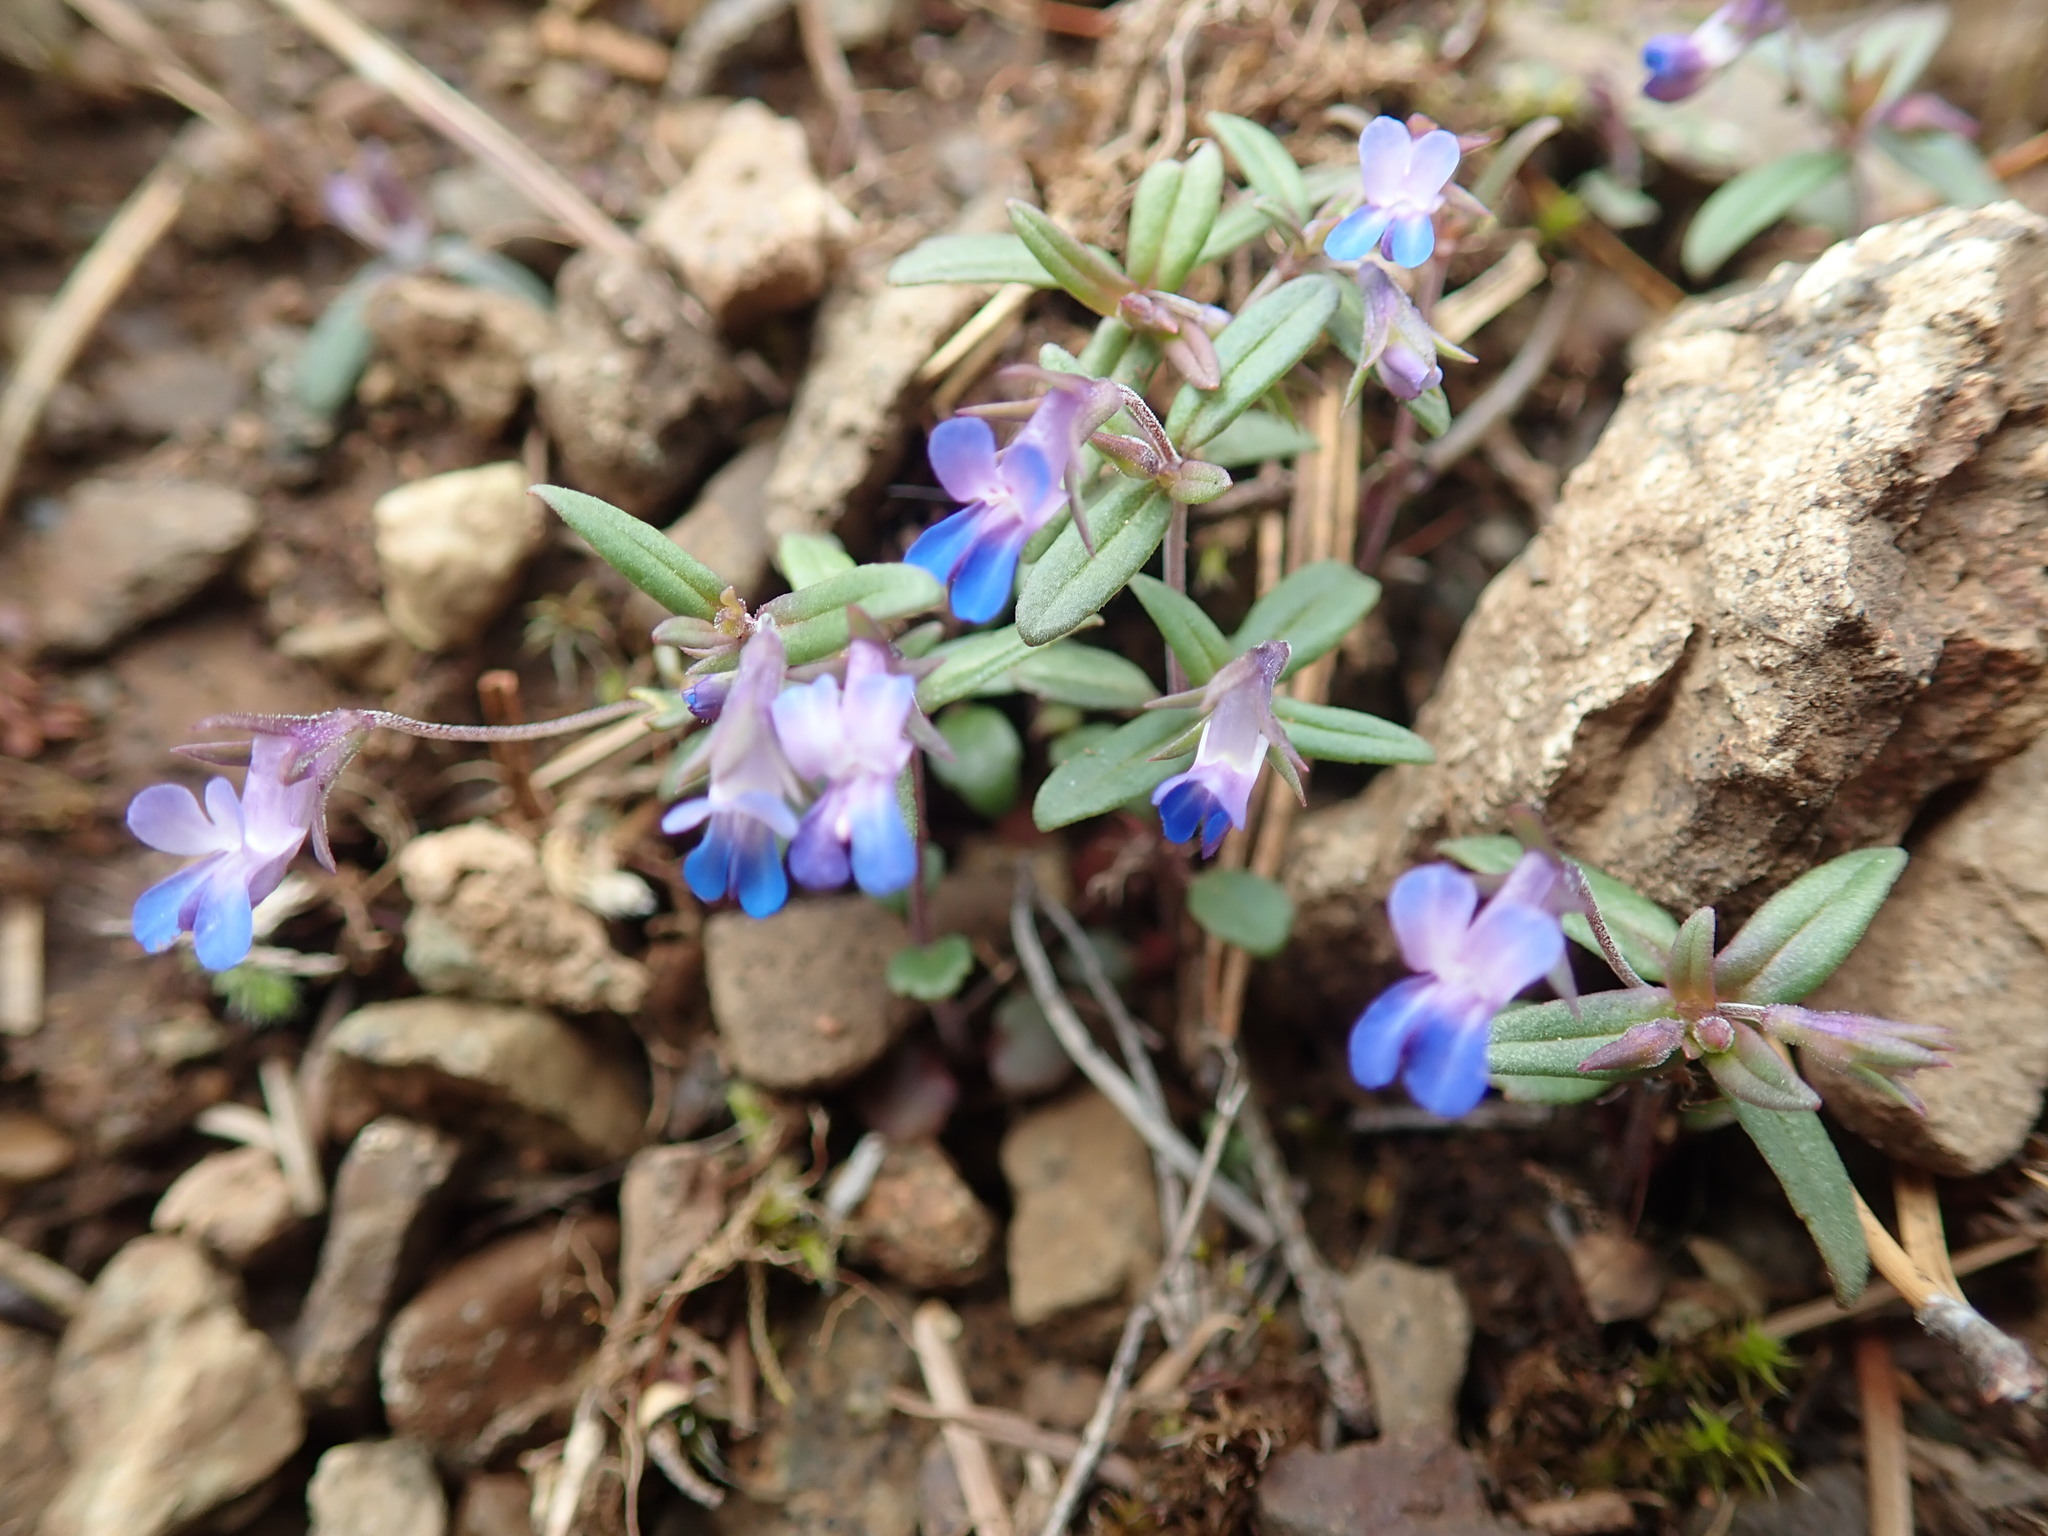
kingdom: Plantae
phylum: Tracheophyta
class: Magnoliopsida
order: Lamiales
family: Plantaginaceae
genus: Collinsia
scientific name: Collinsia parviflora
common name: Blue-lips
